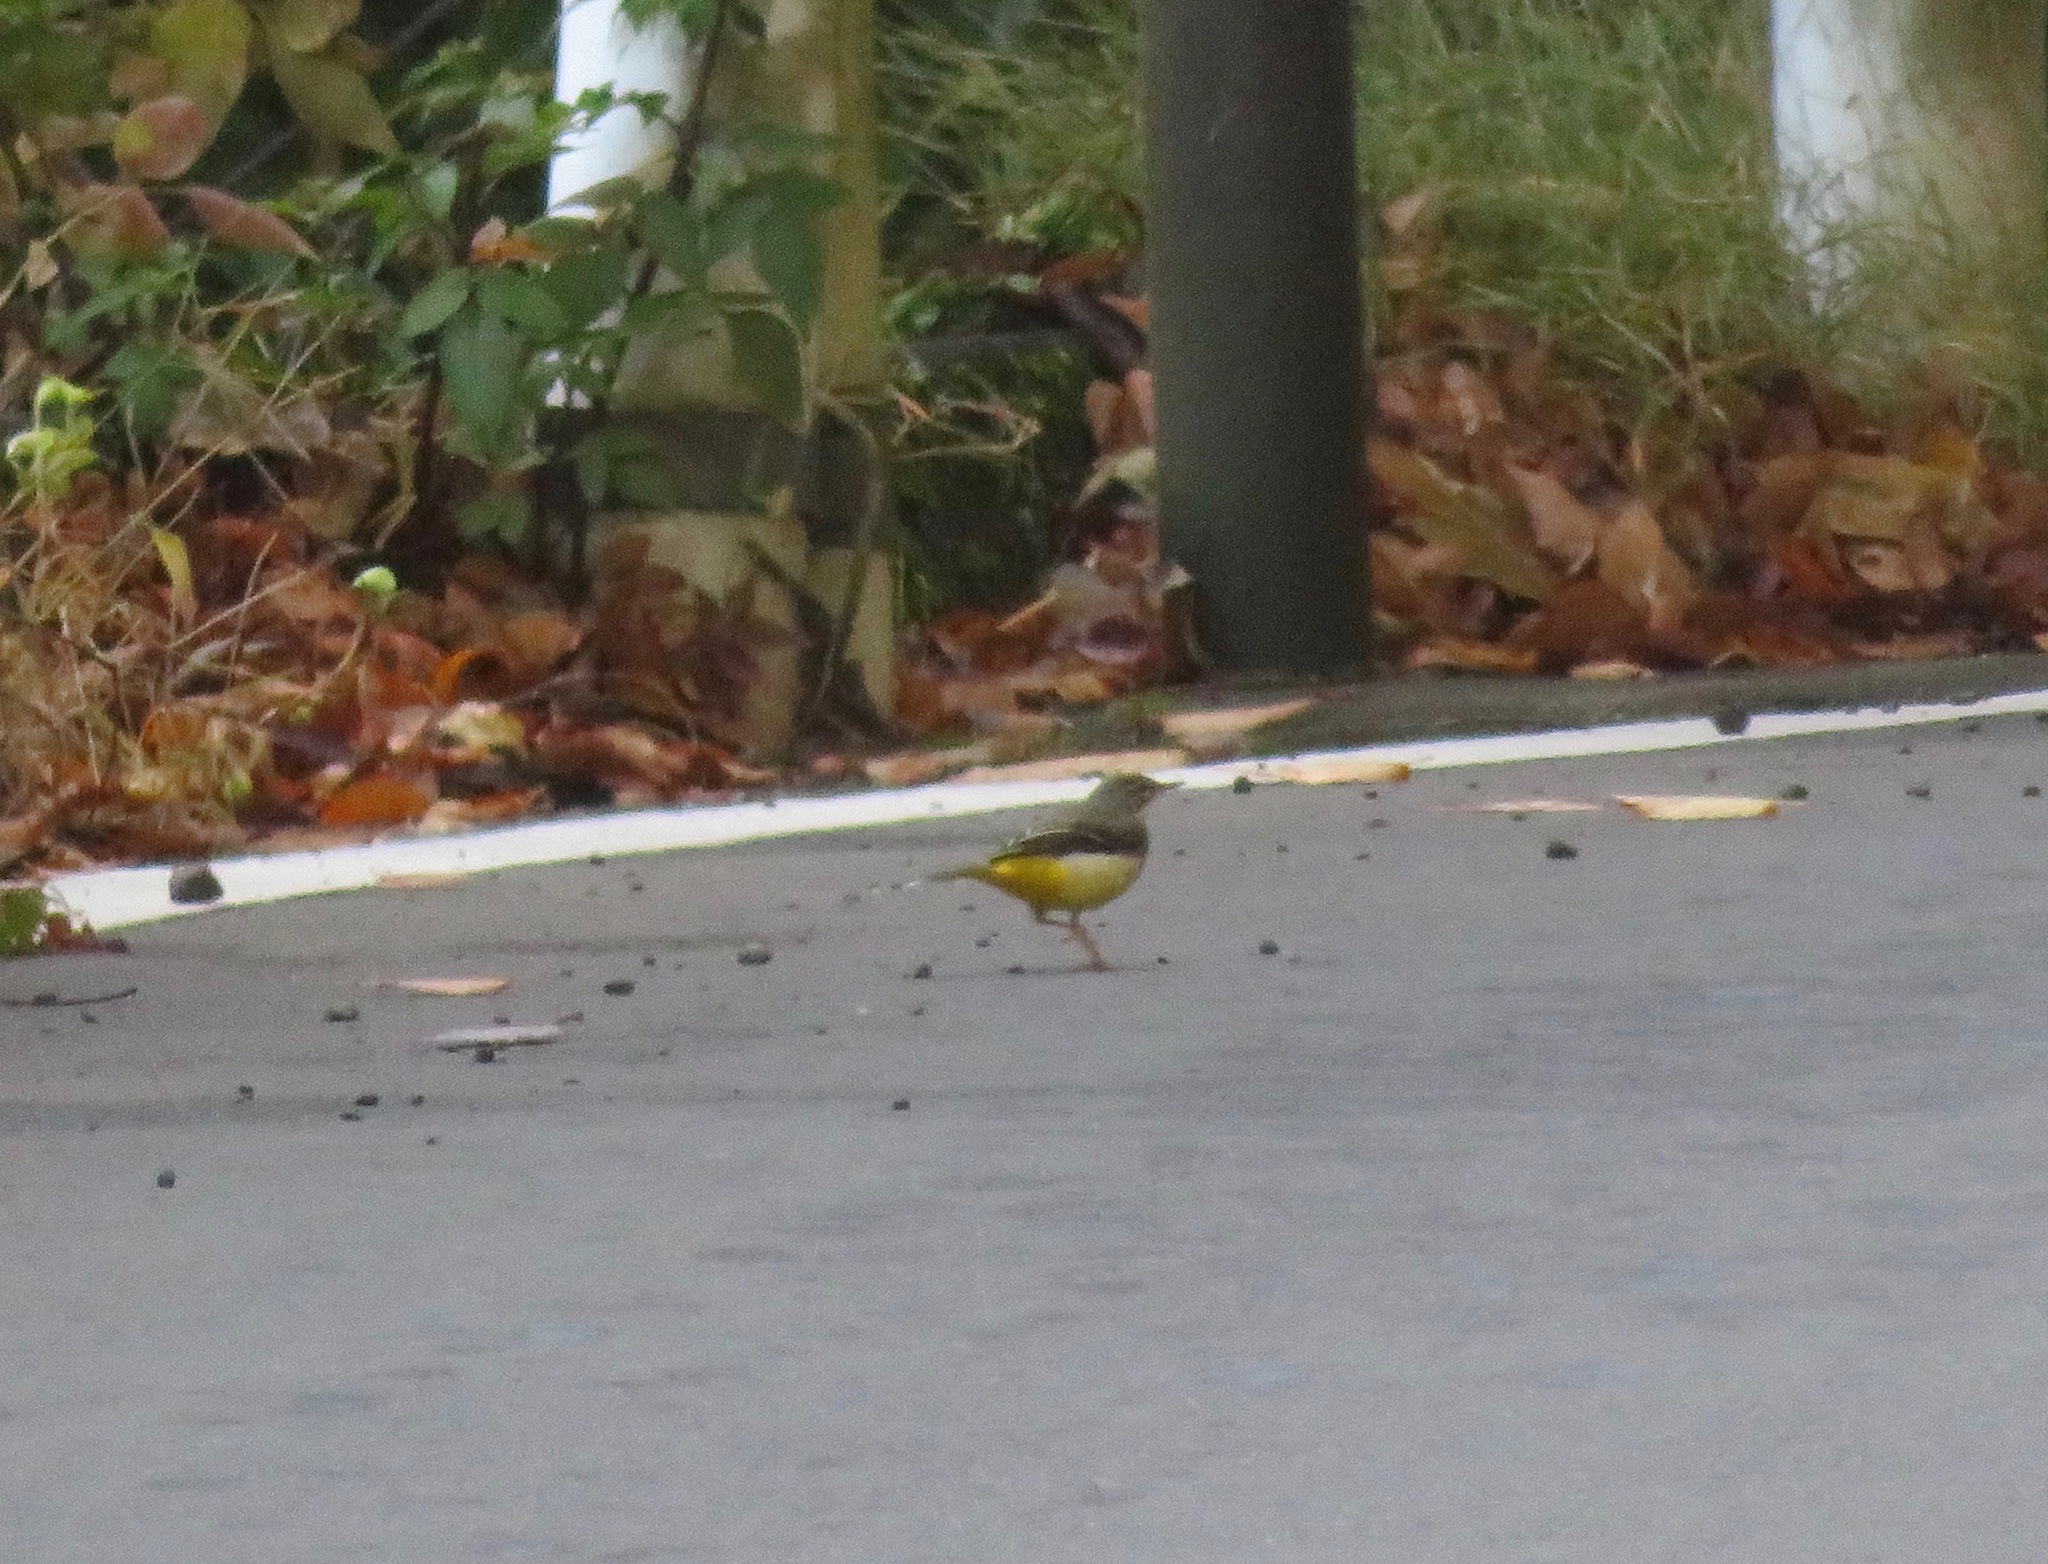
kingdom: Animalia
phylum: Chordata
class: Aves
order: Passeriformes
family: Motacillidae
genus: Motacilla
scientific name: Motacilla cinerea
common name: Grey wagtail
